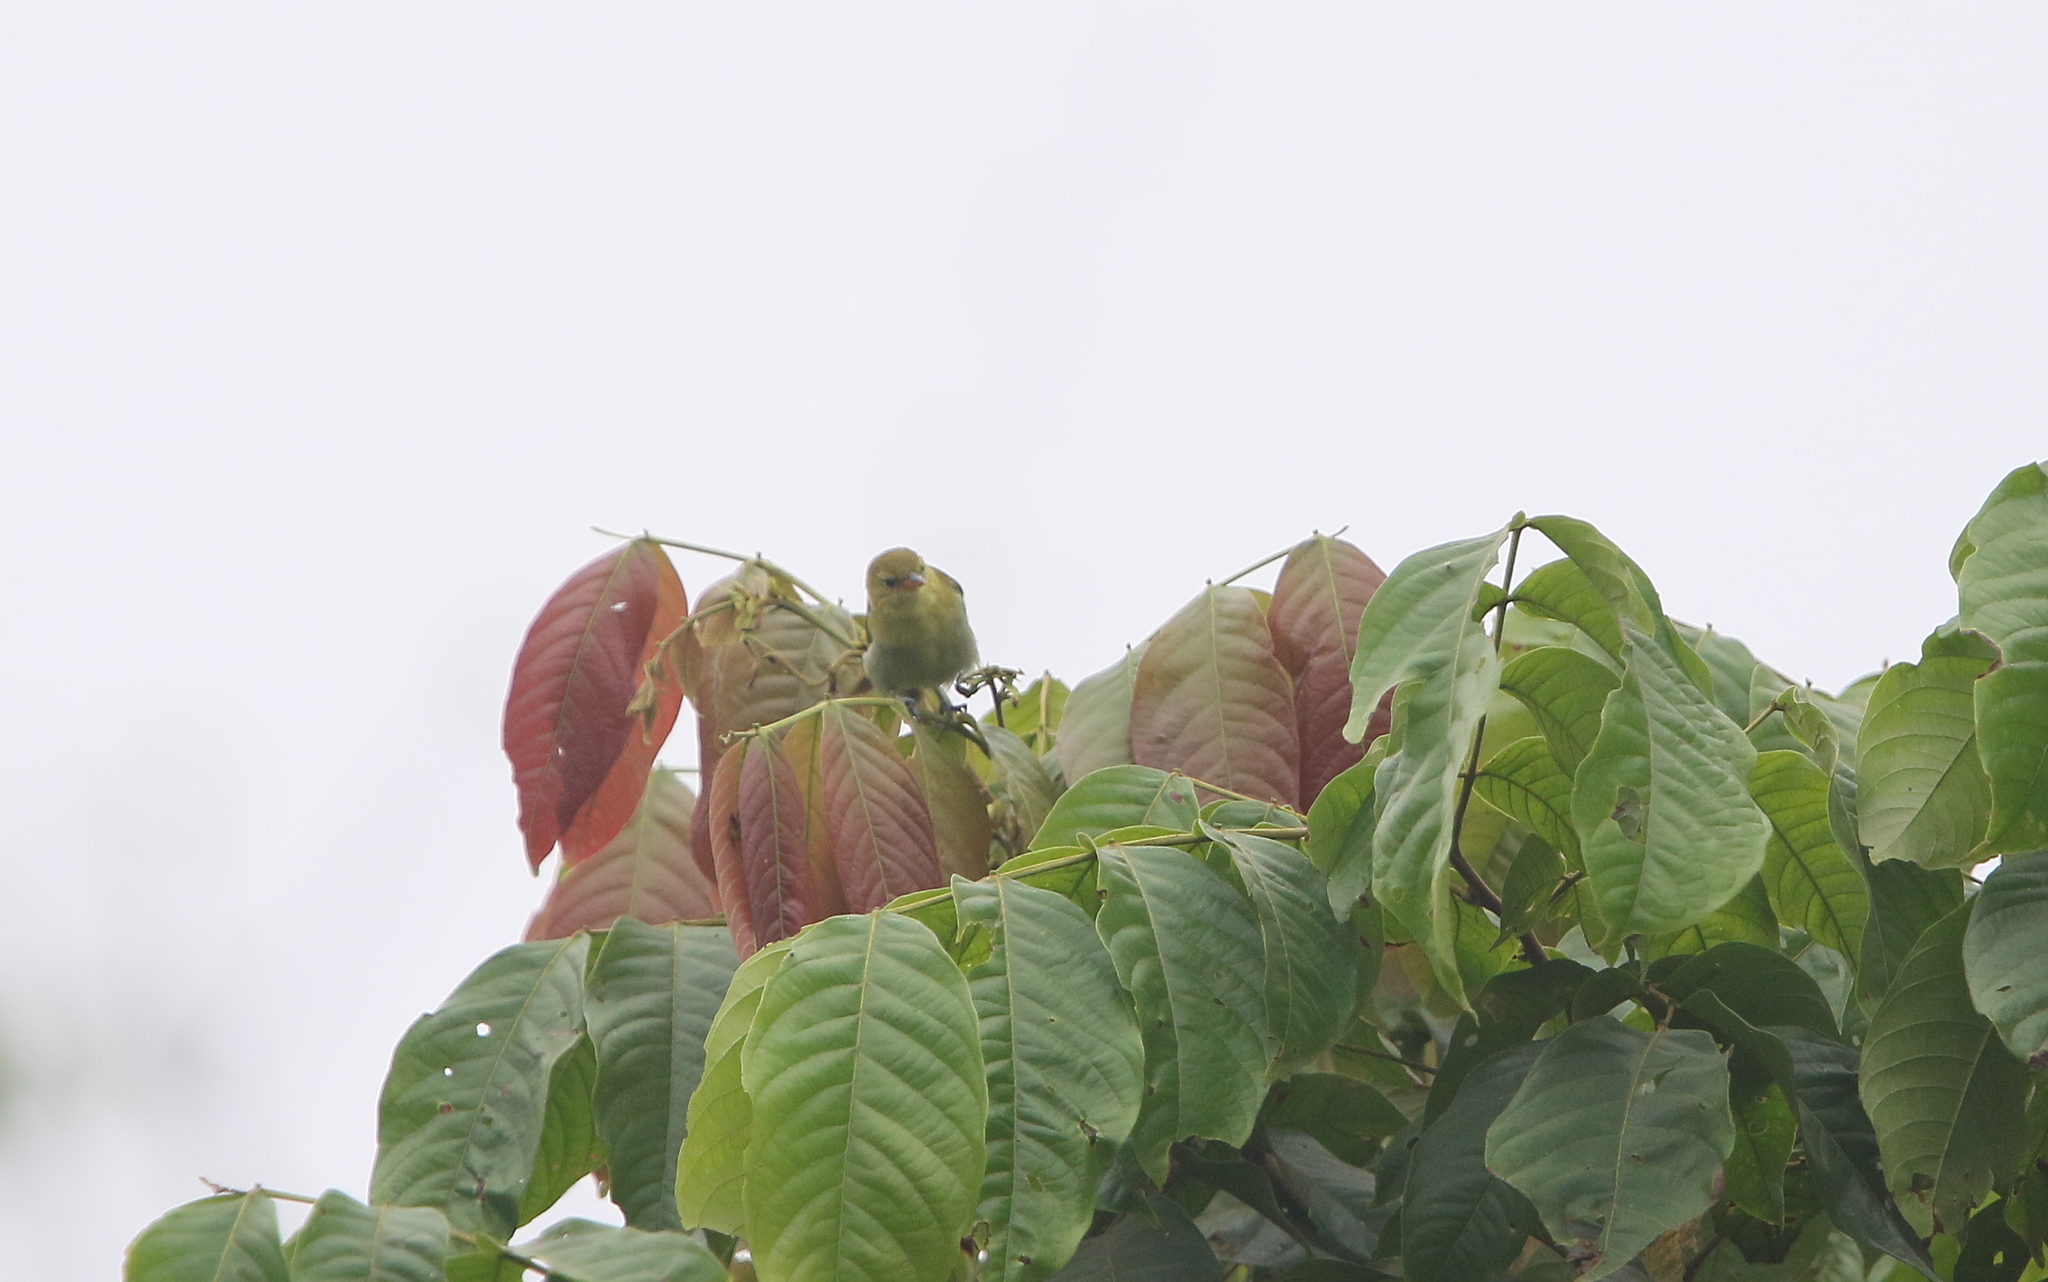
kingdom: Animalia
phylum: Chordata
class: Aves
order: Passeriformes
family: Thraupidae
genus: Hemithraupis
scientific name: Hemithraupis guira
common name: Guira tanager
